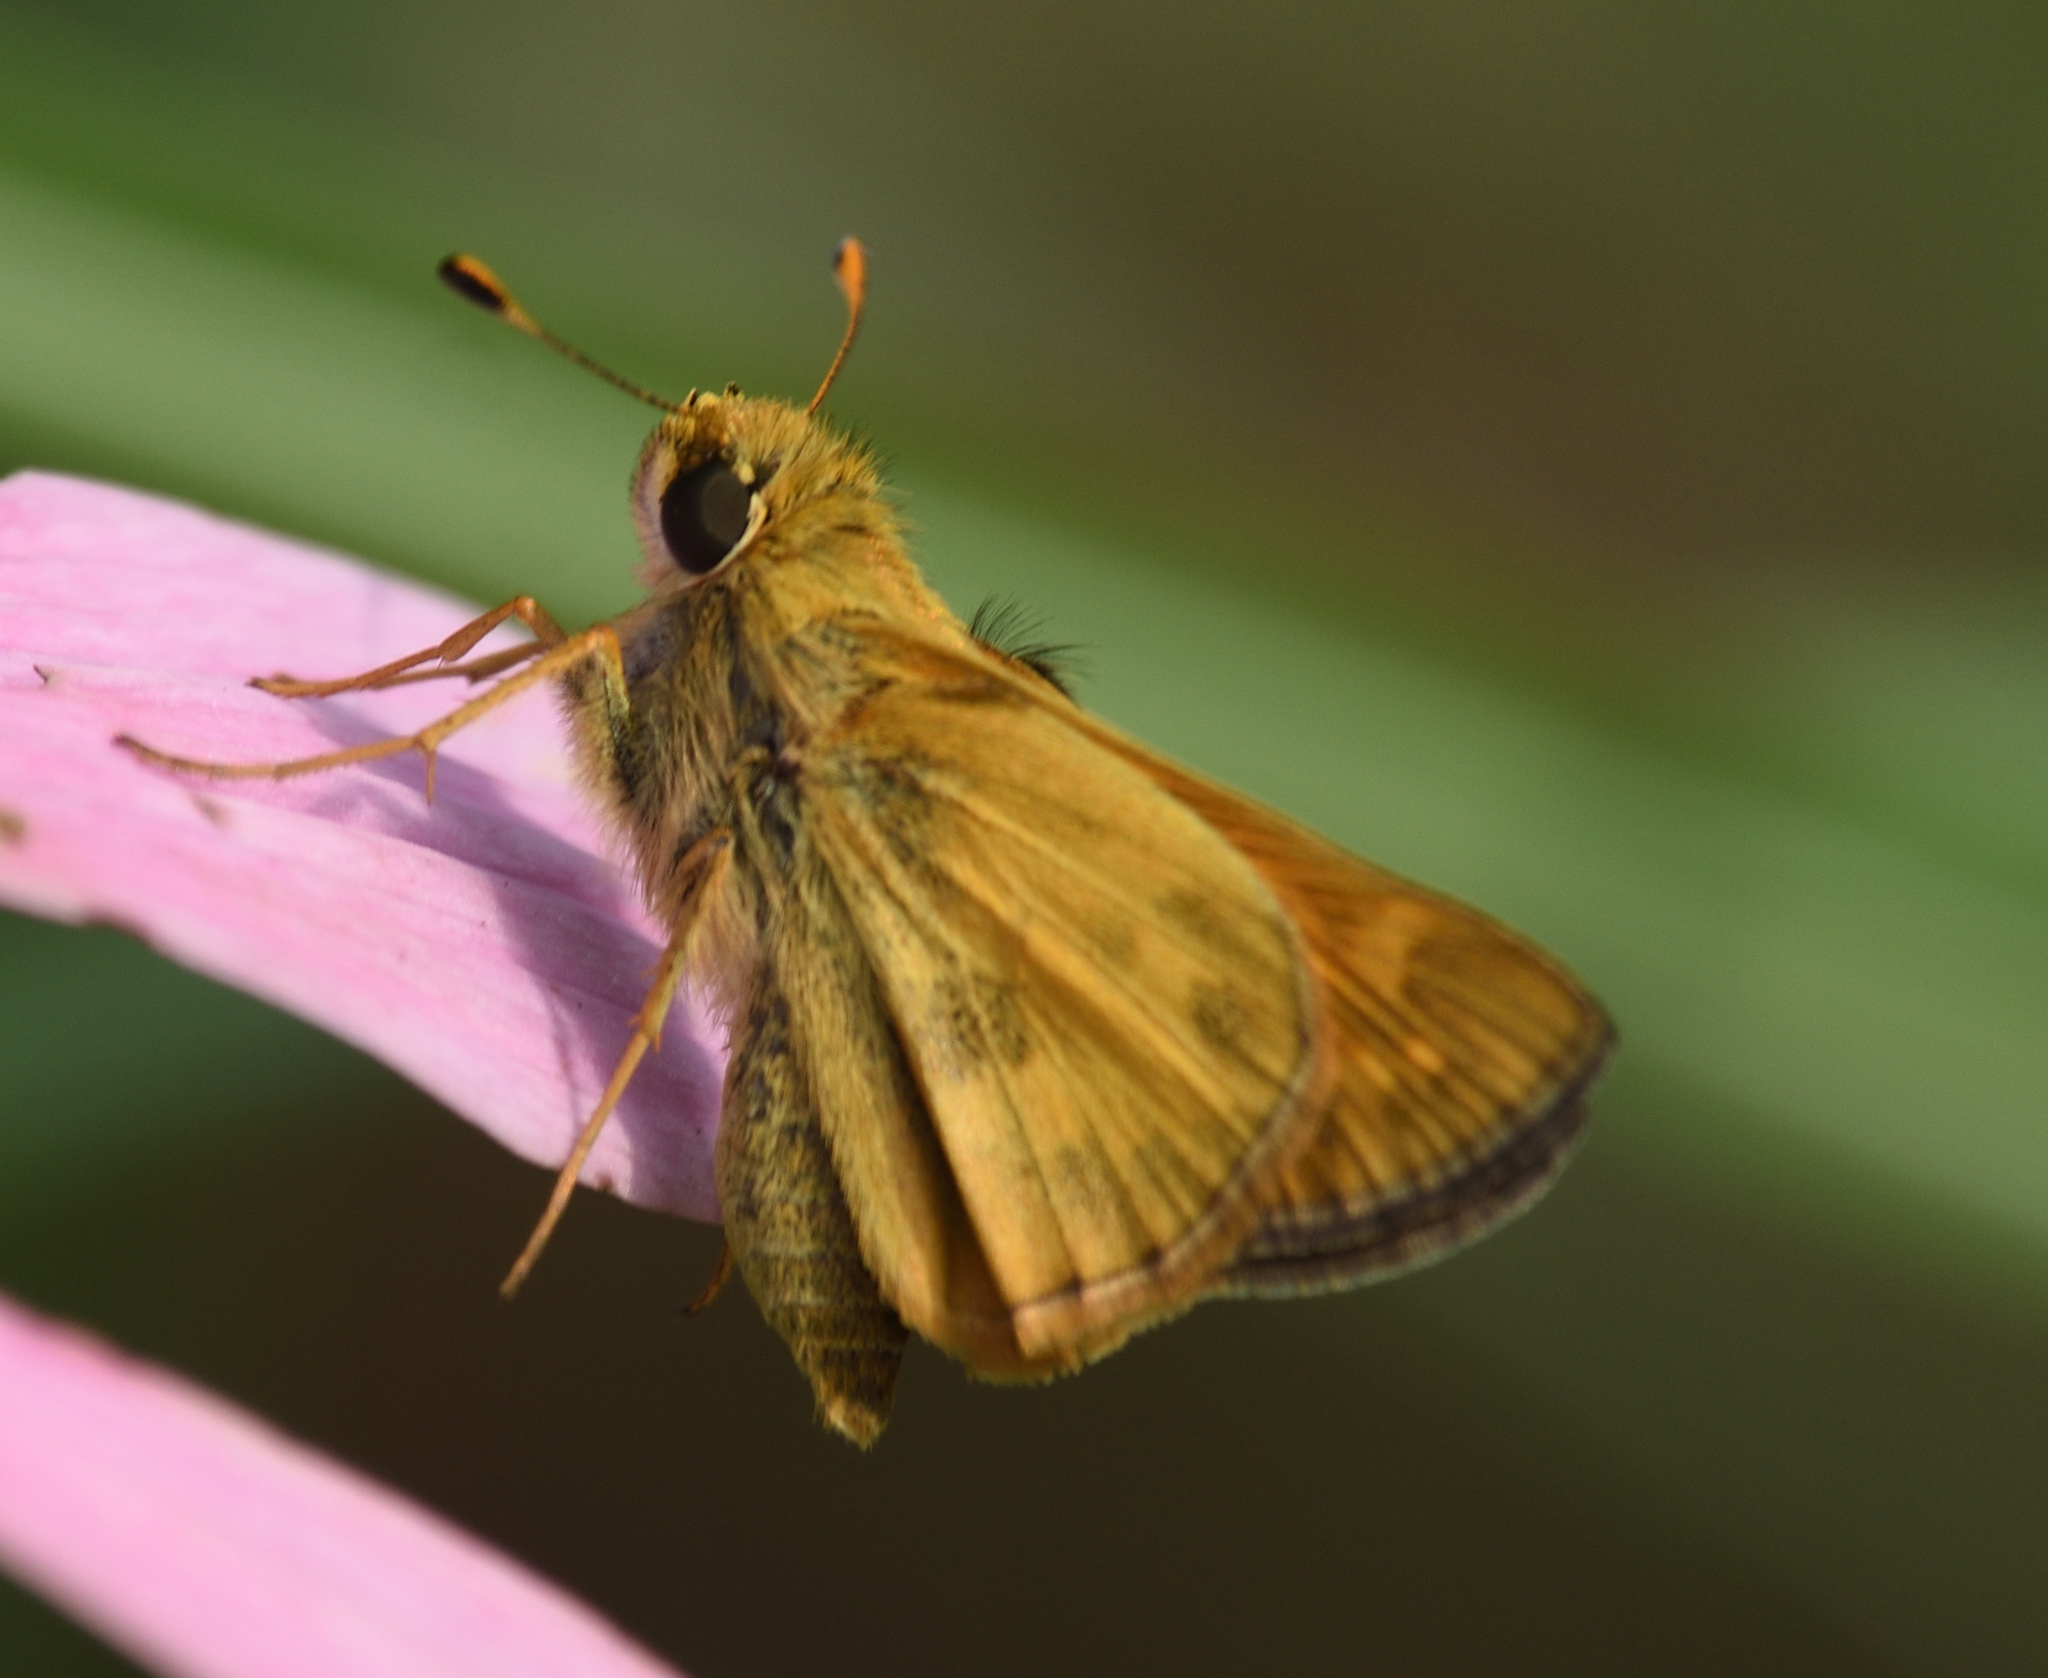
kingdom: Animalia
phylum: Arthropoda
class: Insecta
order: Lepidoptera
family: Hesperiidae
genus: Atalopedes
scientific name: Atalopedes
